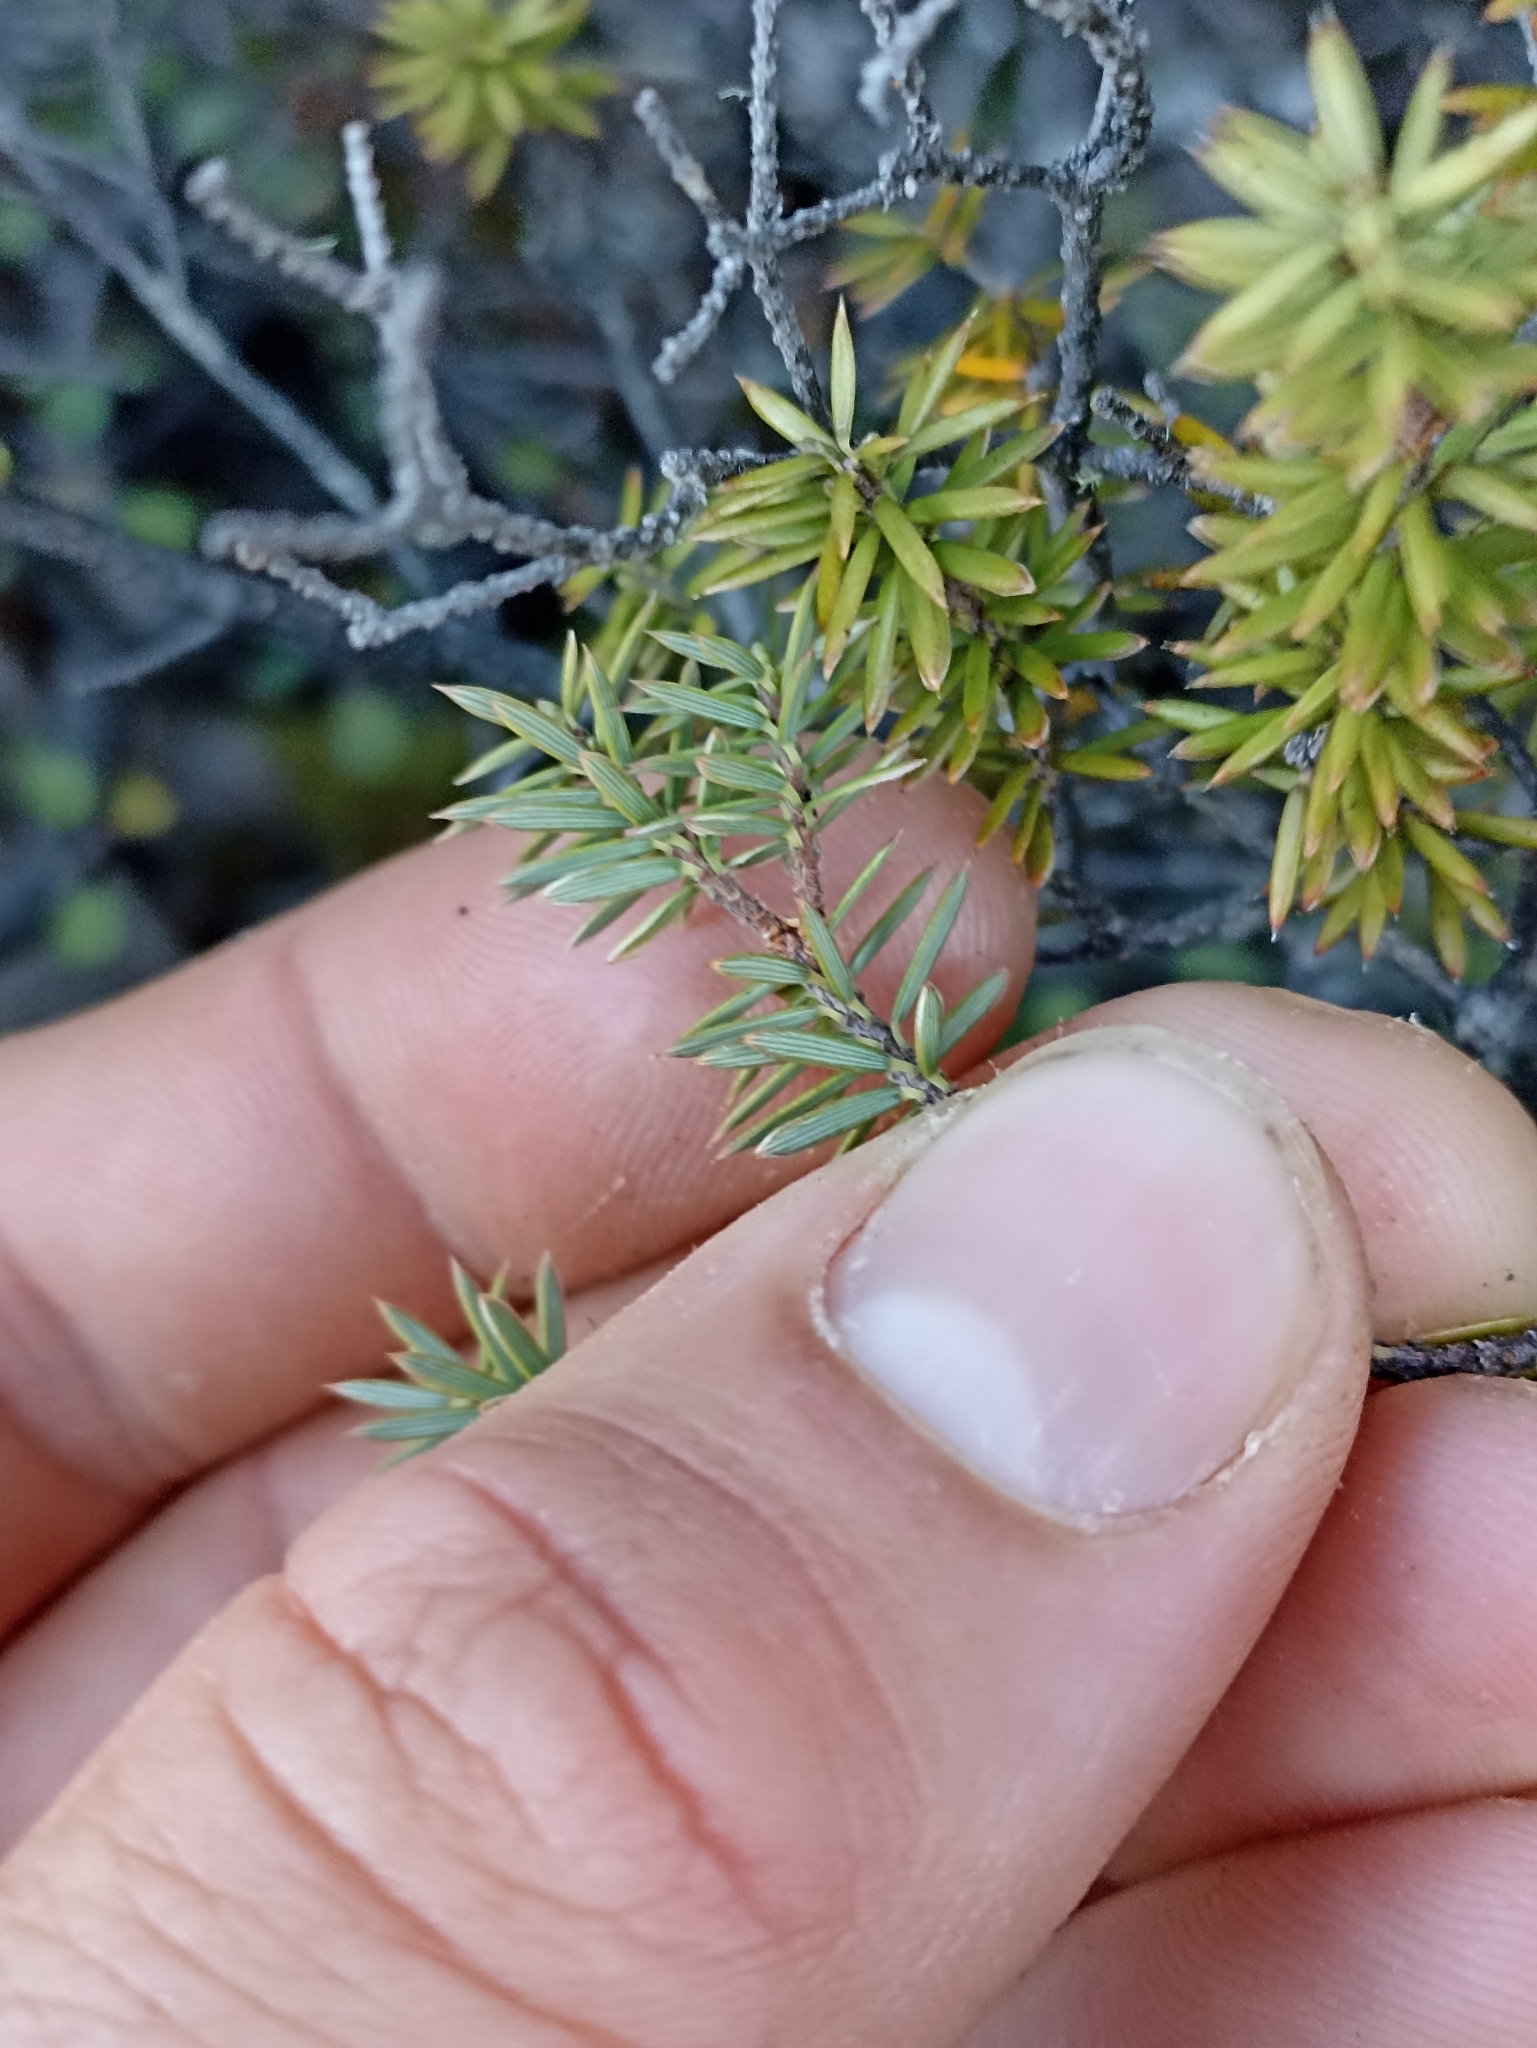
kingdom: Plantae
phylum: Tracheophyta
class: Magnoliopsida
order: Ericales
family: Ericaceae
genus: Leptecophylla
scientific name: Leptecophylla juniperina
